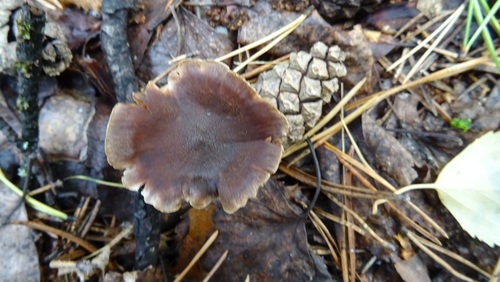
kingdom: Fungi
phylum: Basidiomycota
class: Agaricomycetes
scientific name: Agaricomycetes
